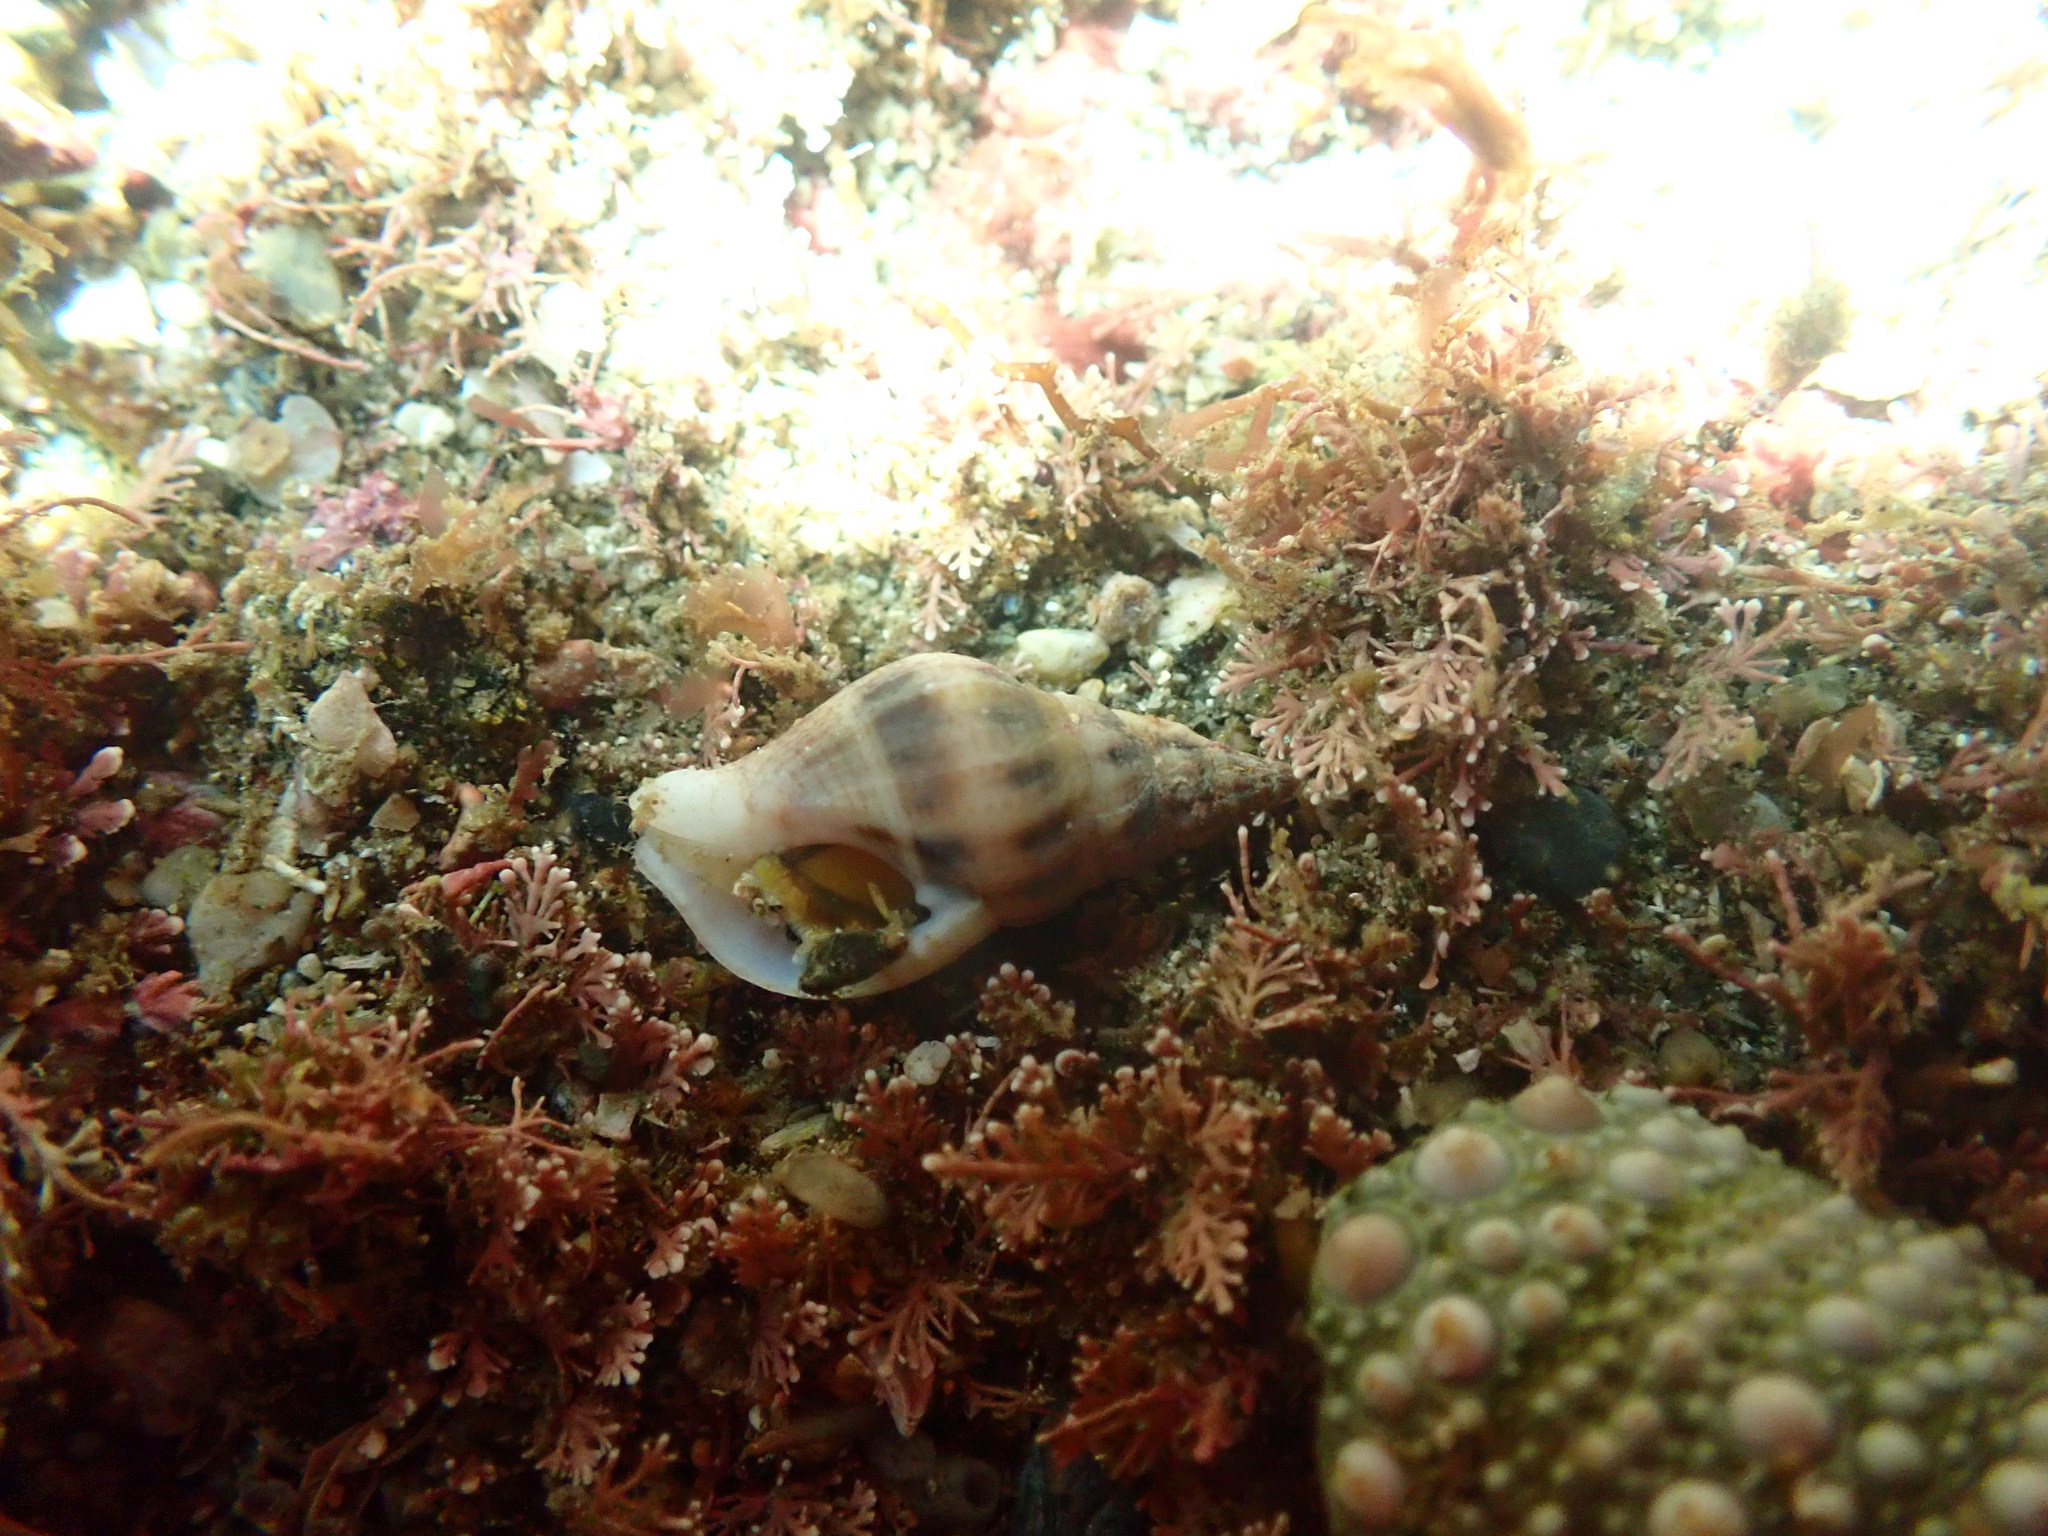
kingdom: Animalia
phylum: Mollusca
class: Gastropoda
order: Neogastropoda
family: Tudiclidae
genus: Buccinulum
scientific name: Buccinulum vittatum
